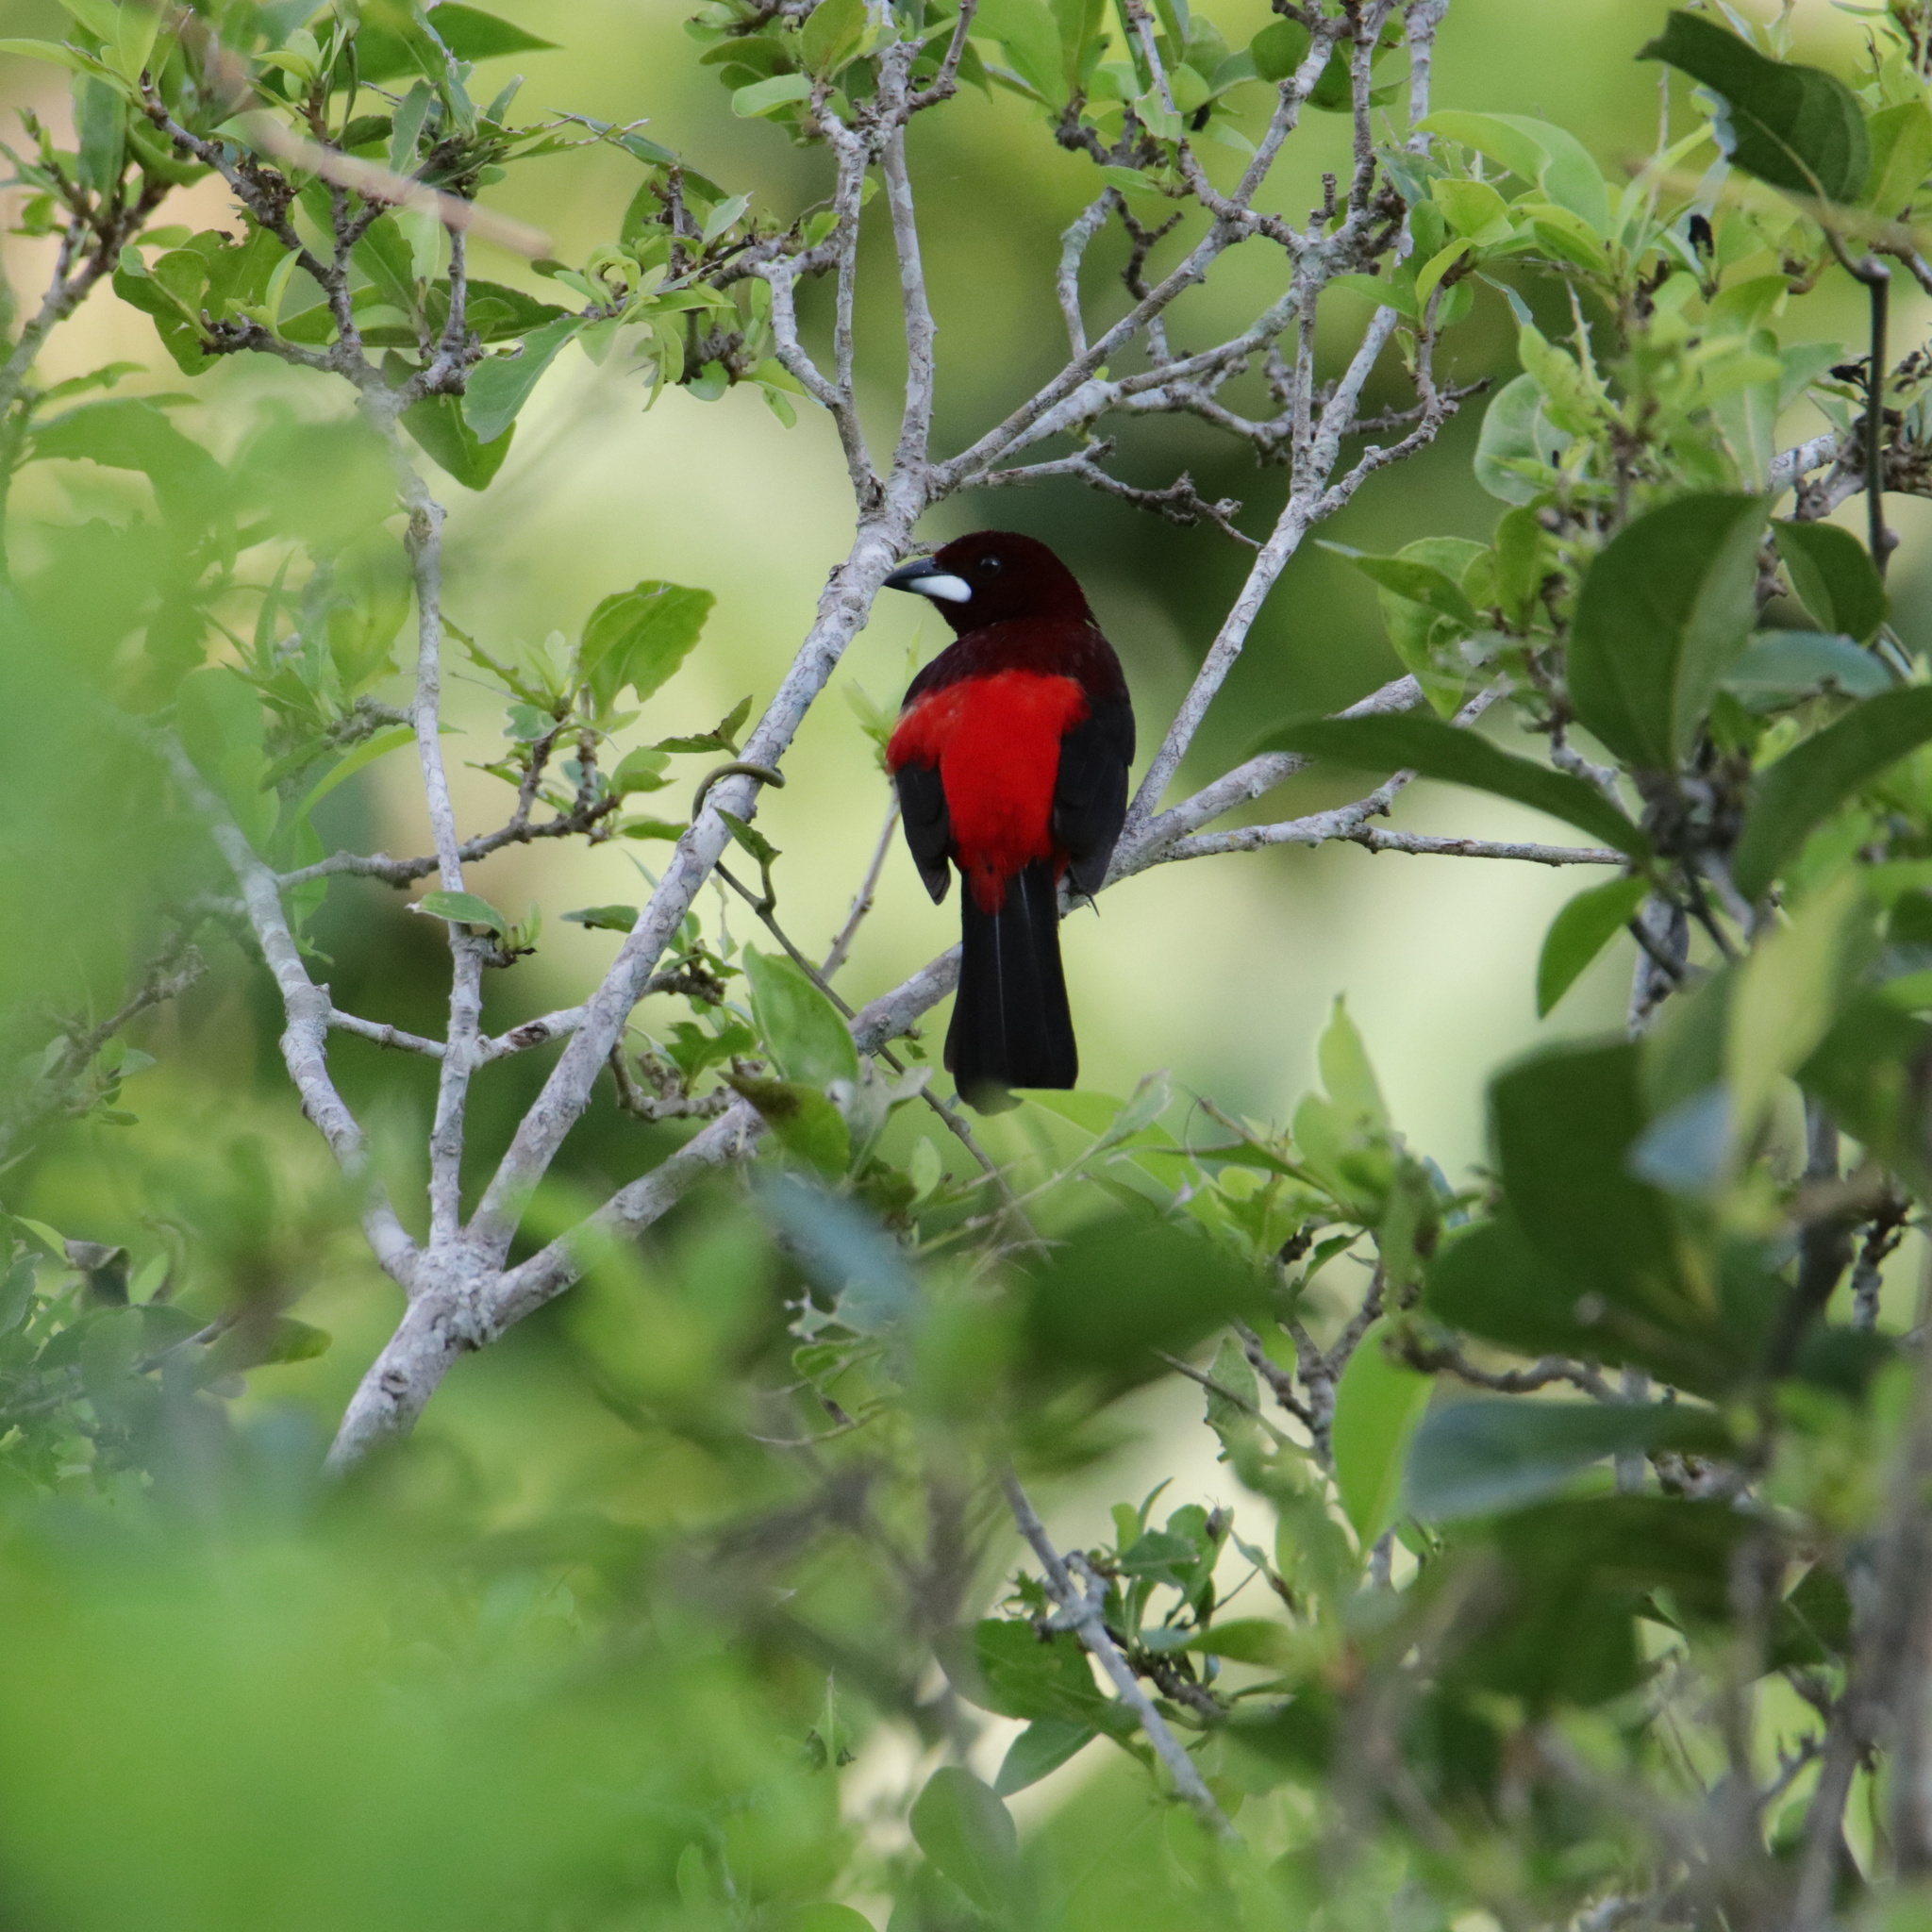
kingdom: Animalia
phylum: Chordata
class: Aves
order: Passeriformes
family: Thraupidae
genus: Ramphocelus
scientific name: Ramphocelus dimidiatus
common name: Crimson-backed tanager
